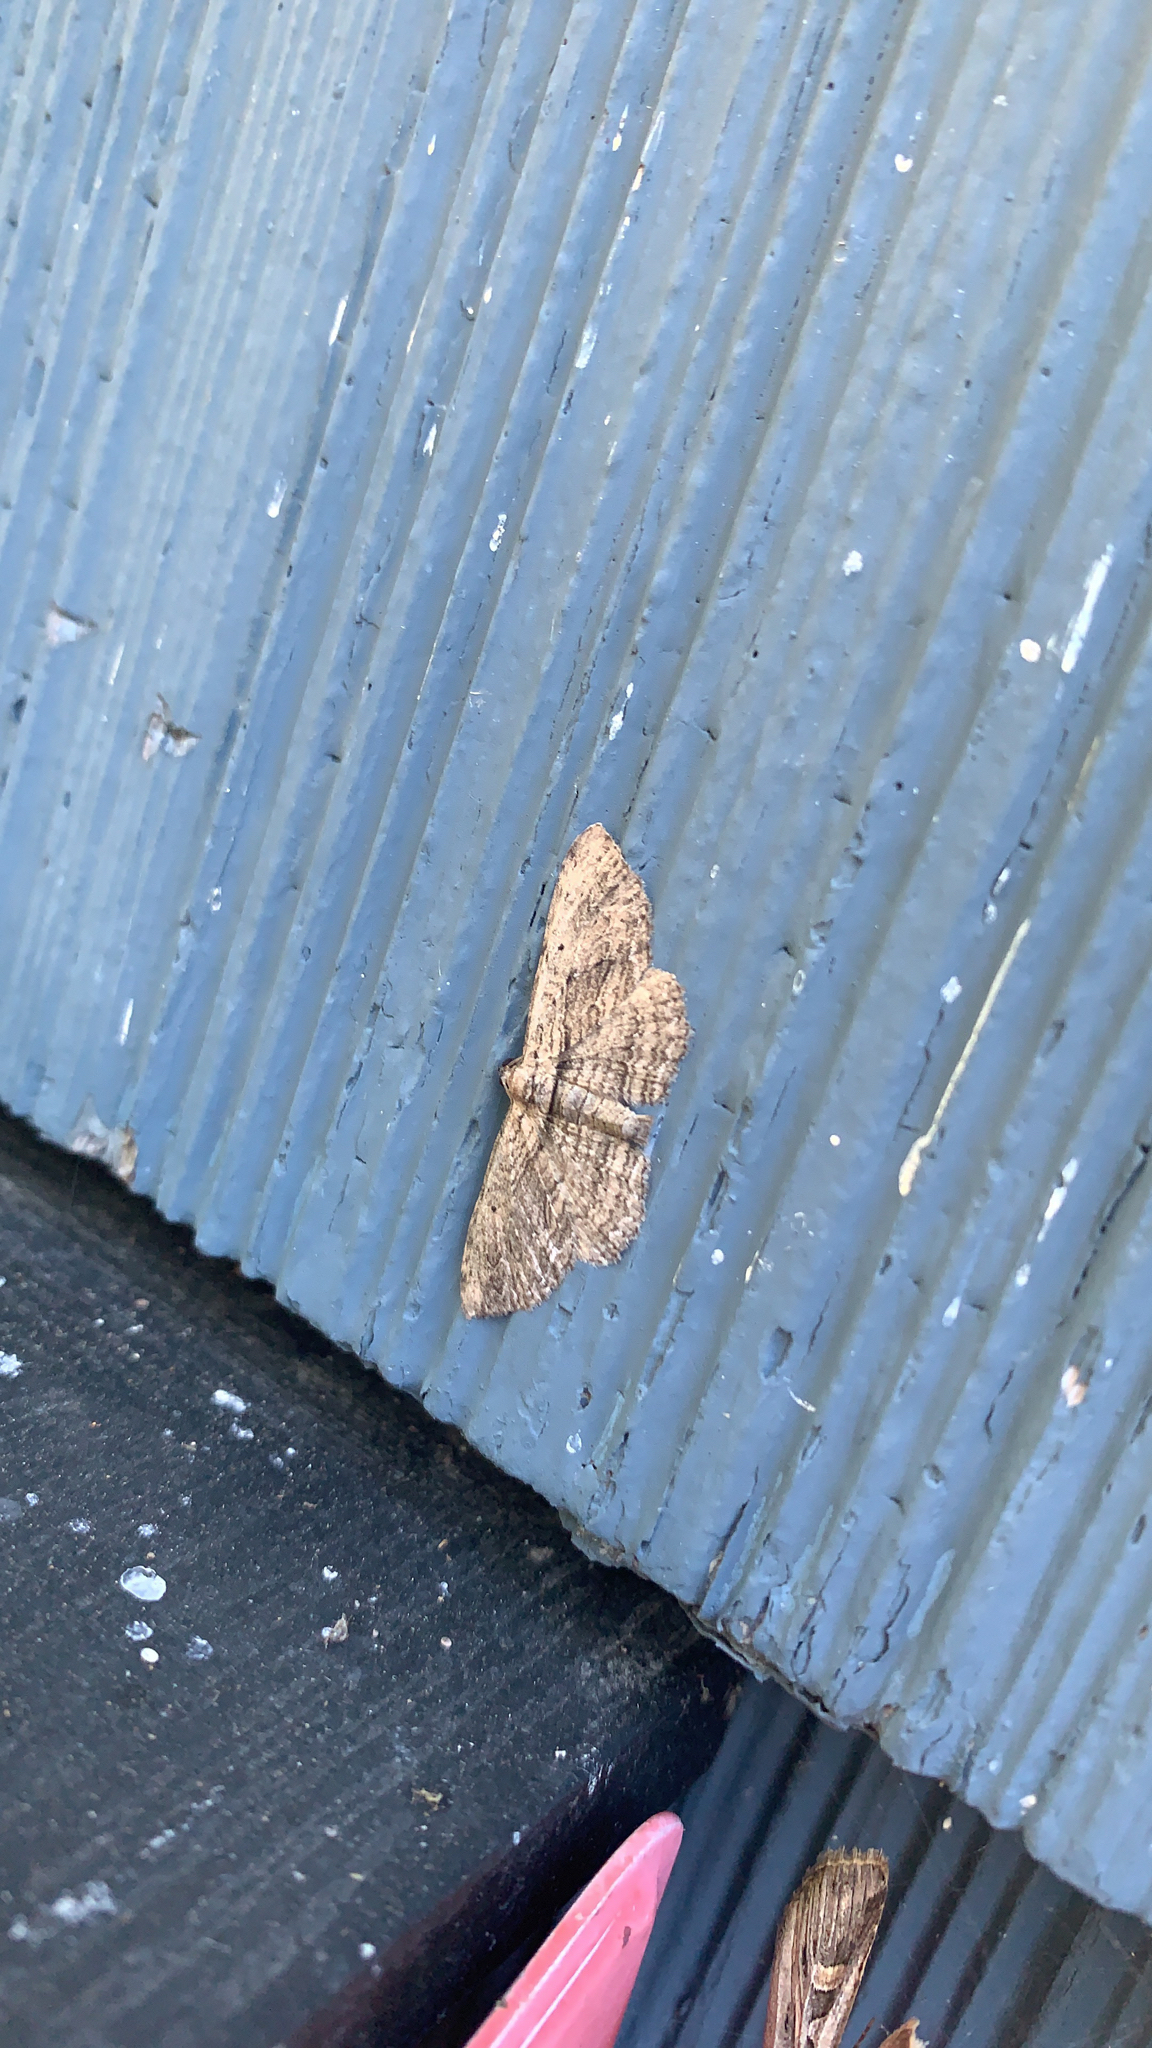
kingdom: Animalia
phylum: Arthropoda
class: Insecta
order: Lepidoptera
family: Geometridae
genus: Horisme
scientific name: Horisme intestinata
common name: Brown bark carpet
